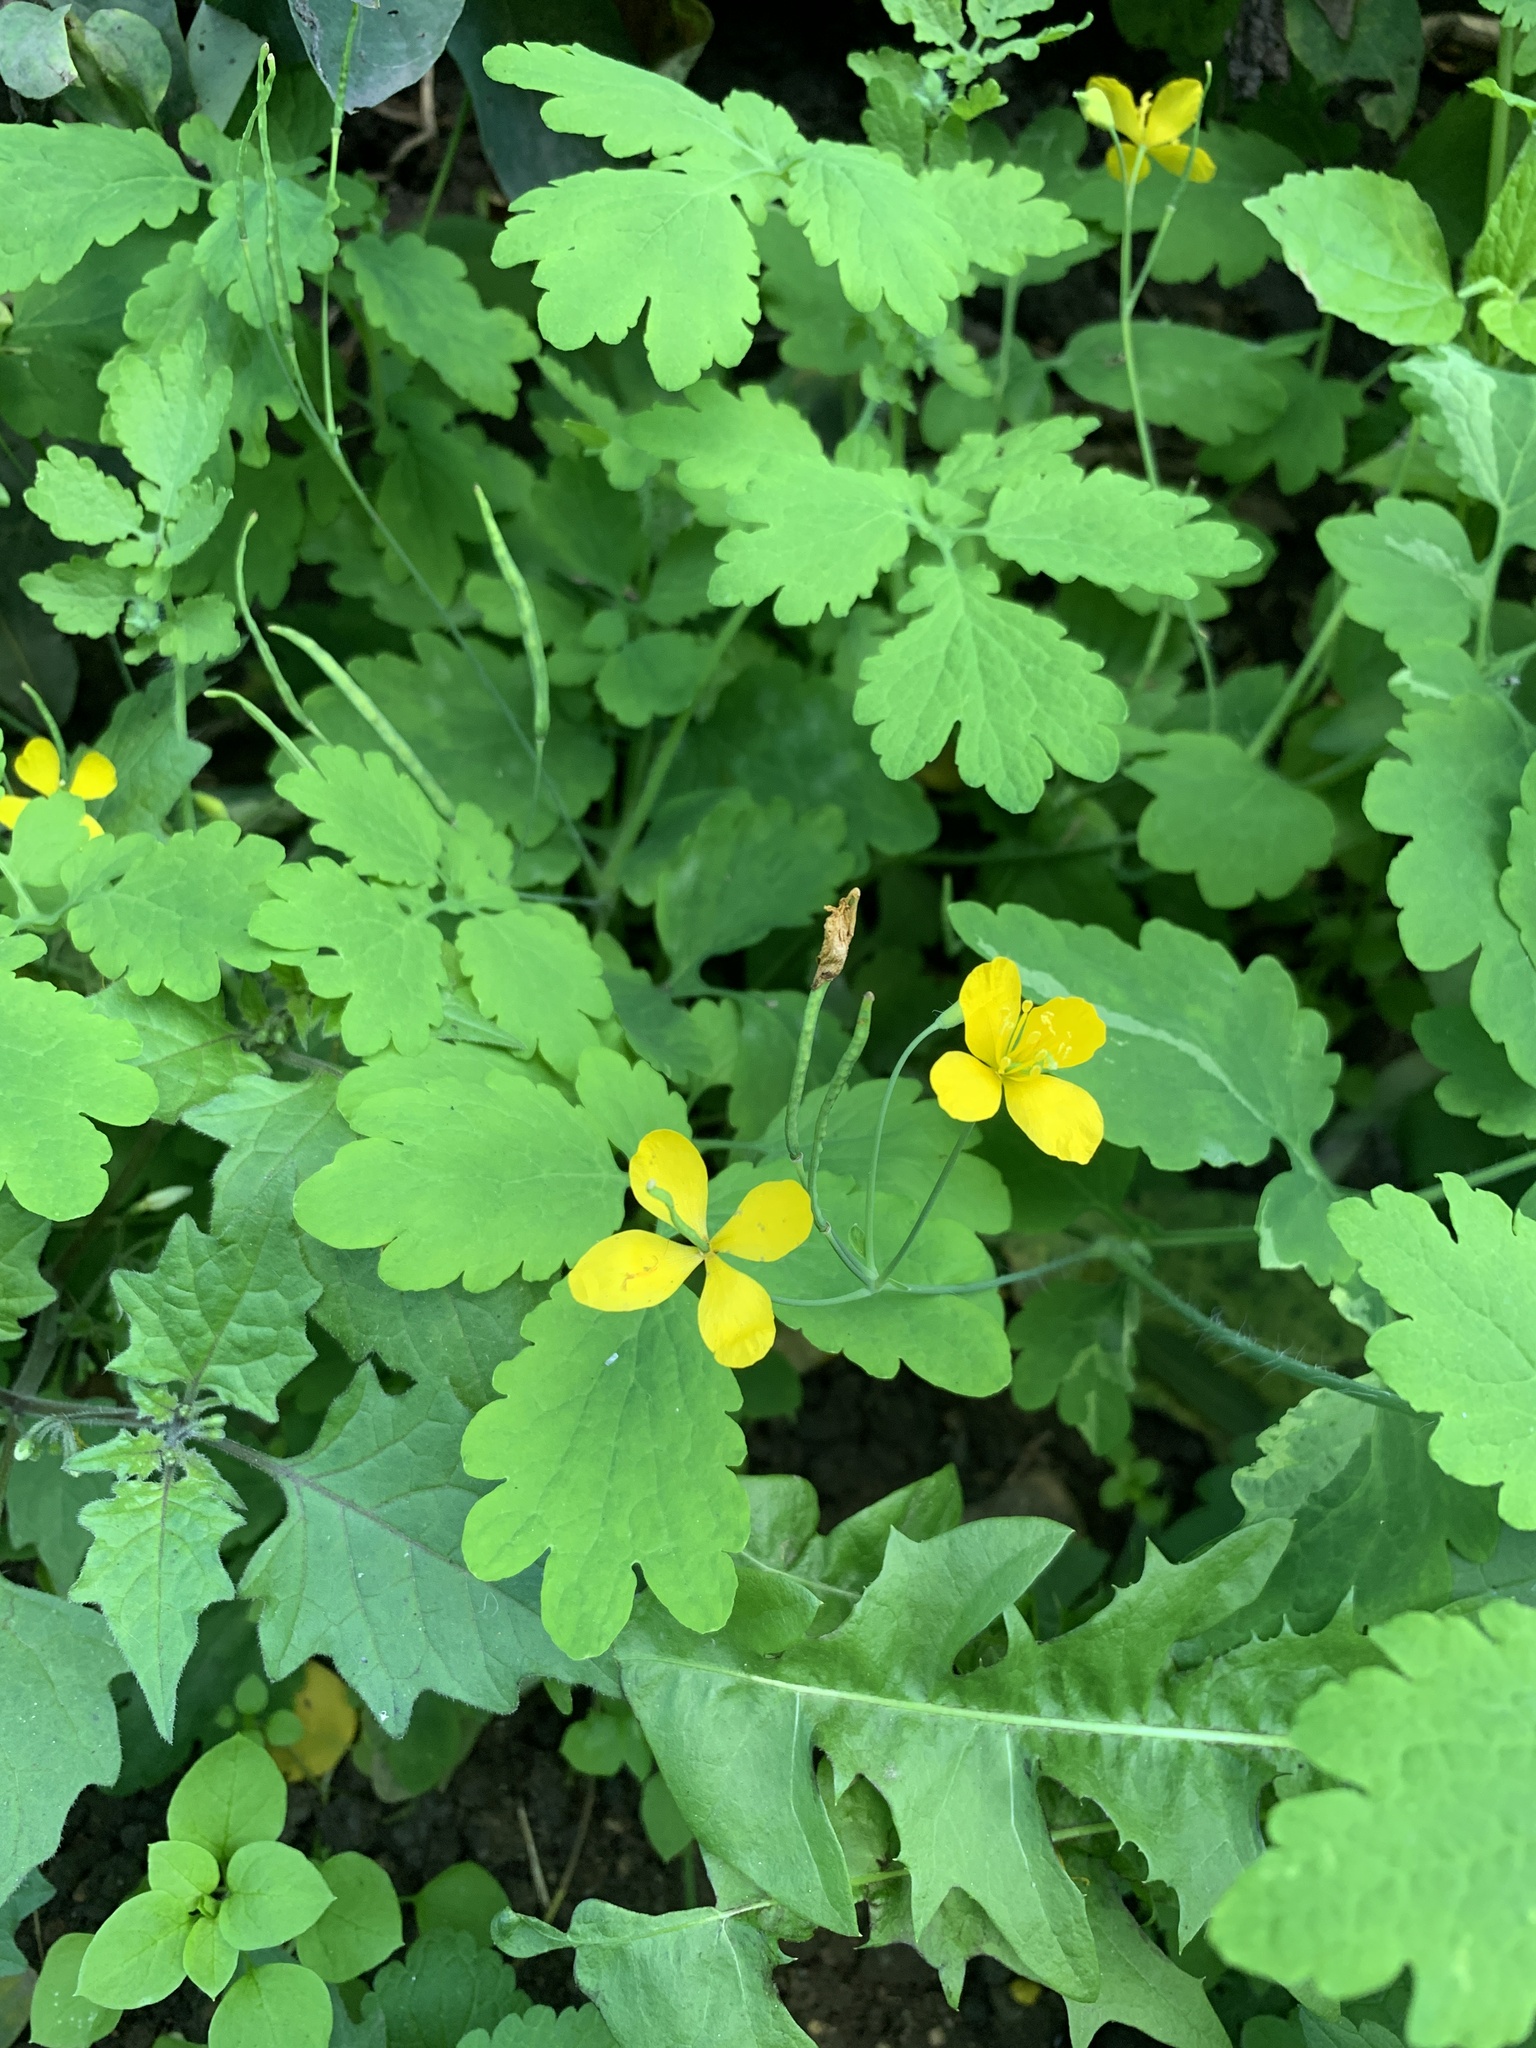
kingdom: Plantae
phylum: Tracheophyta
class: Magnoliopsida
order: Ranunculales
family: Papaveraceae
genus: Chelidonium
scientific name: Chelidonium majus
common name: Greater celandine
